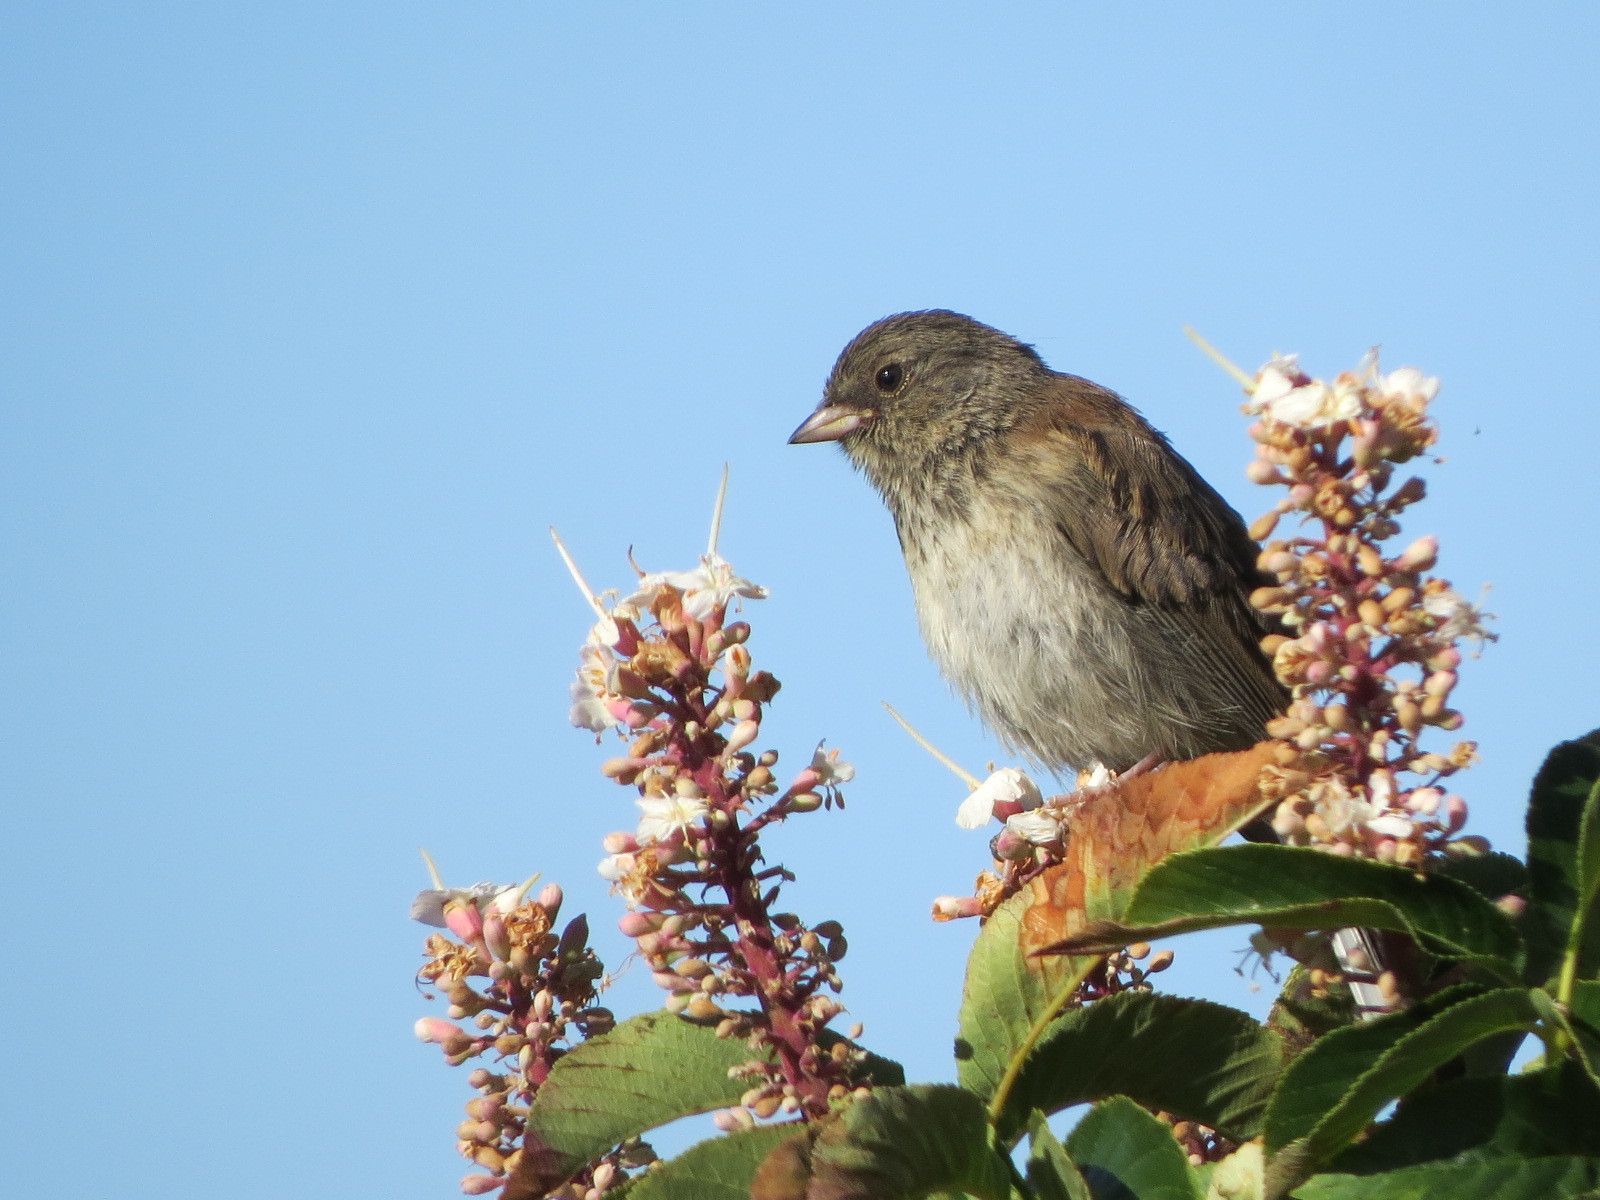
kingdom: Animalia
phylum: Chordata
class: Aves
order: Passeriformes
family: Passerellidae
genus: Junco
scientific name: Junco hyemalis
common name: Dark-eyed junco
